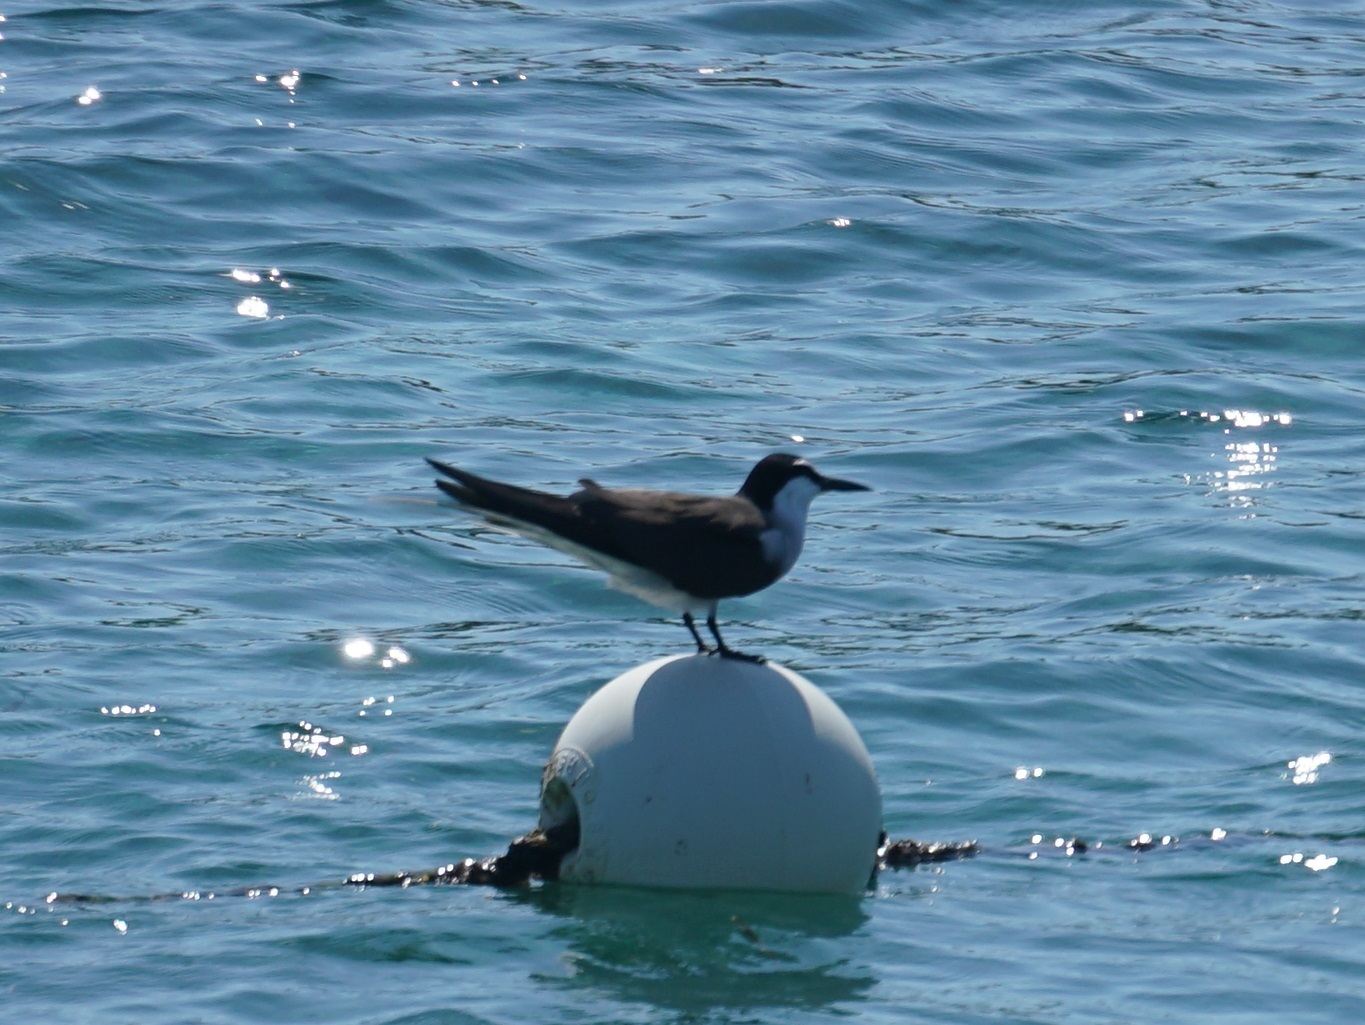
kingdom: Animalia
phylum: Chordata
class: Aves
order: Charadriiformes
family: Laridae
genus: Onychoprion
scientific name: Onychoprion anaethetus
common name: Bridled tern
